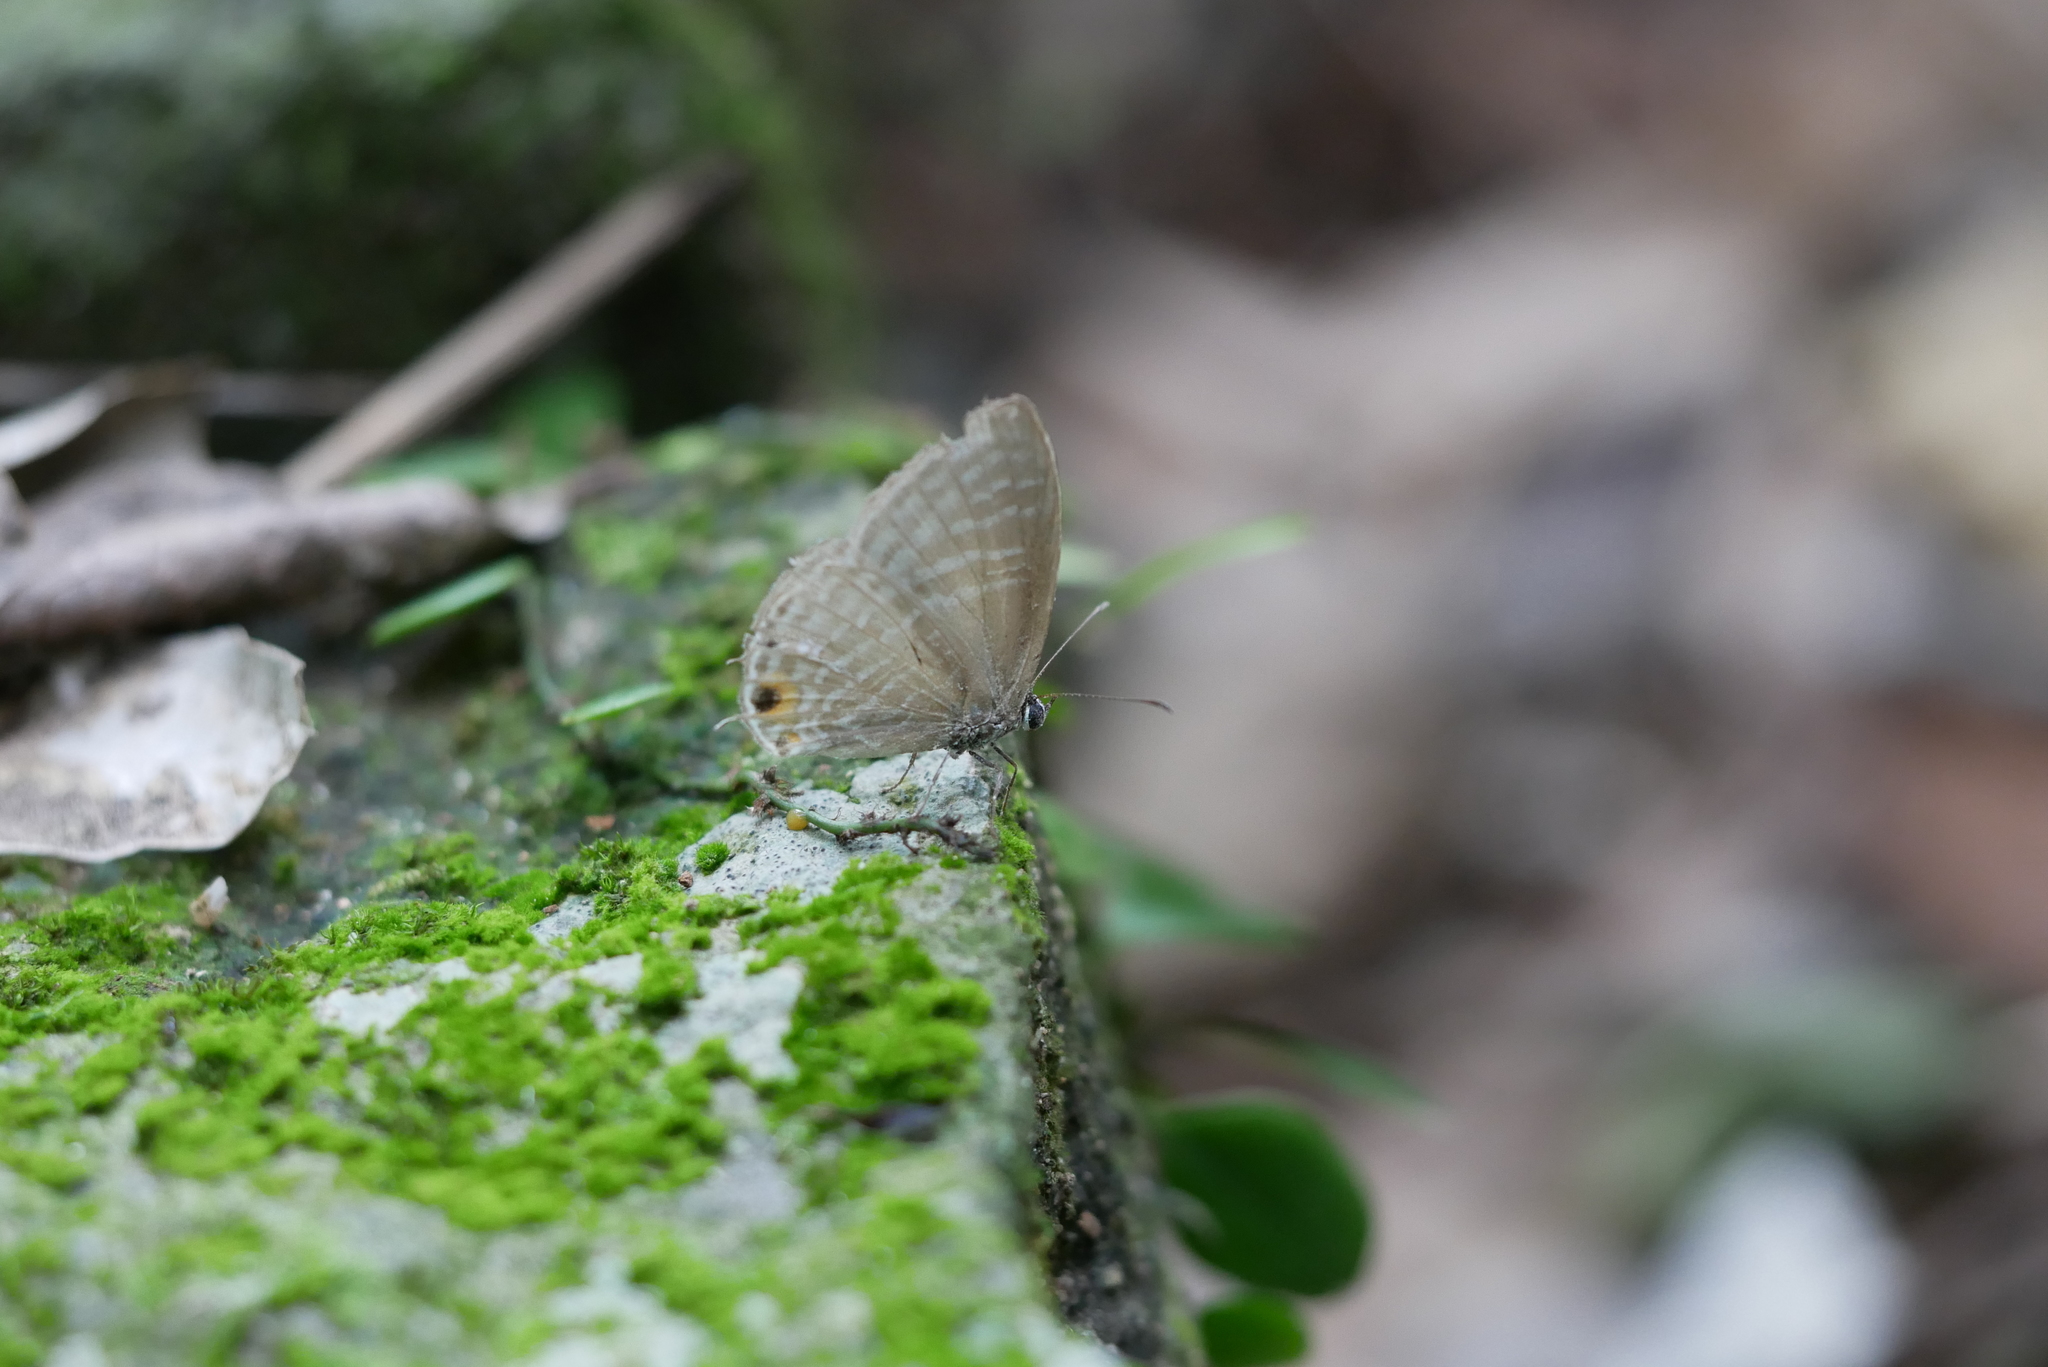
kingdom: Animalia
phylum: Arthropoda
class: Insecta
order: Lepidoptera
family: Lycaenidae
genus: Jamides
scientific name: Jamides alecto
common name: Metallic cerulean
